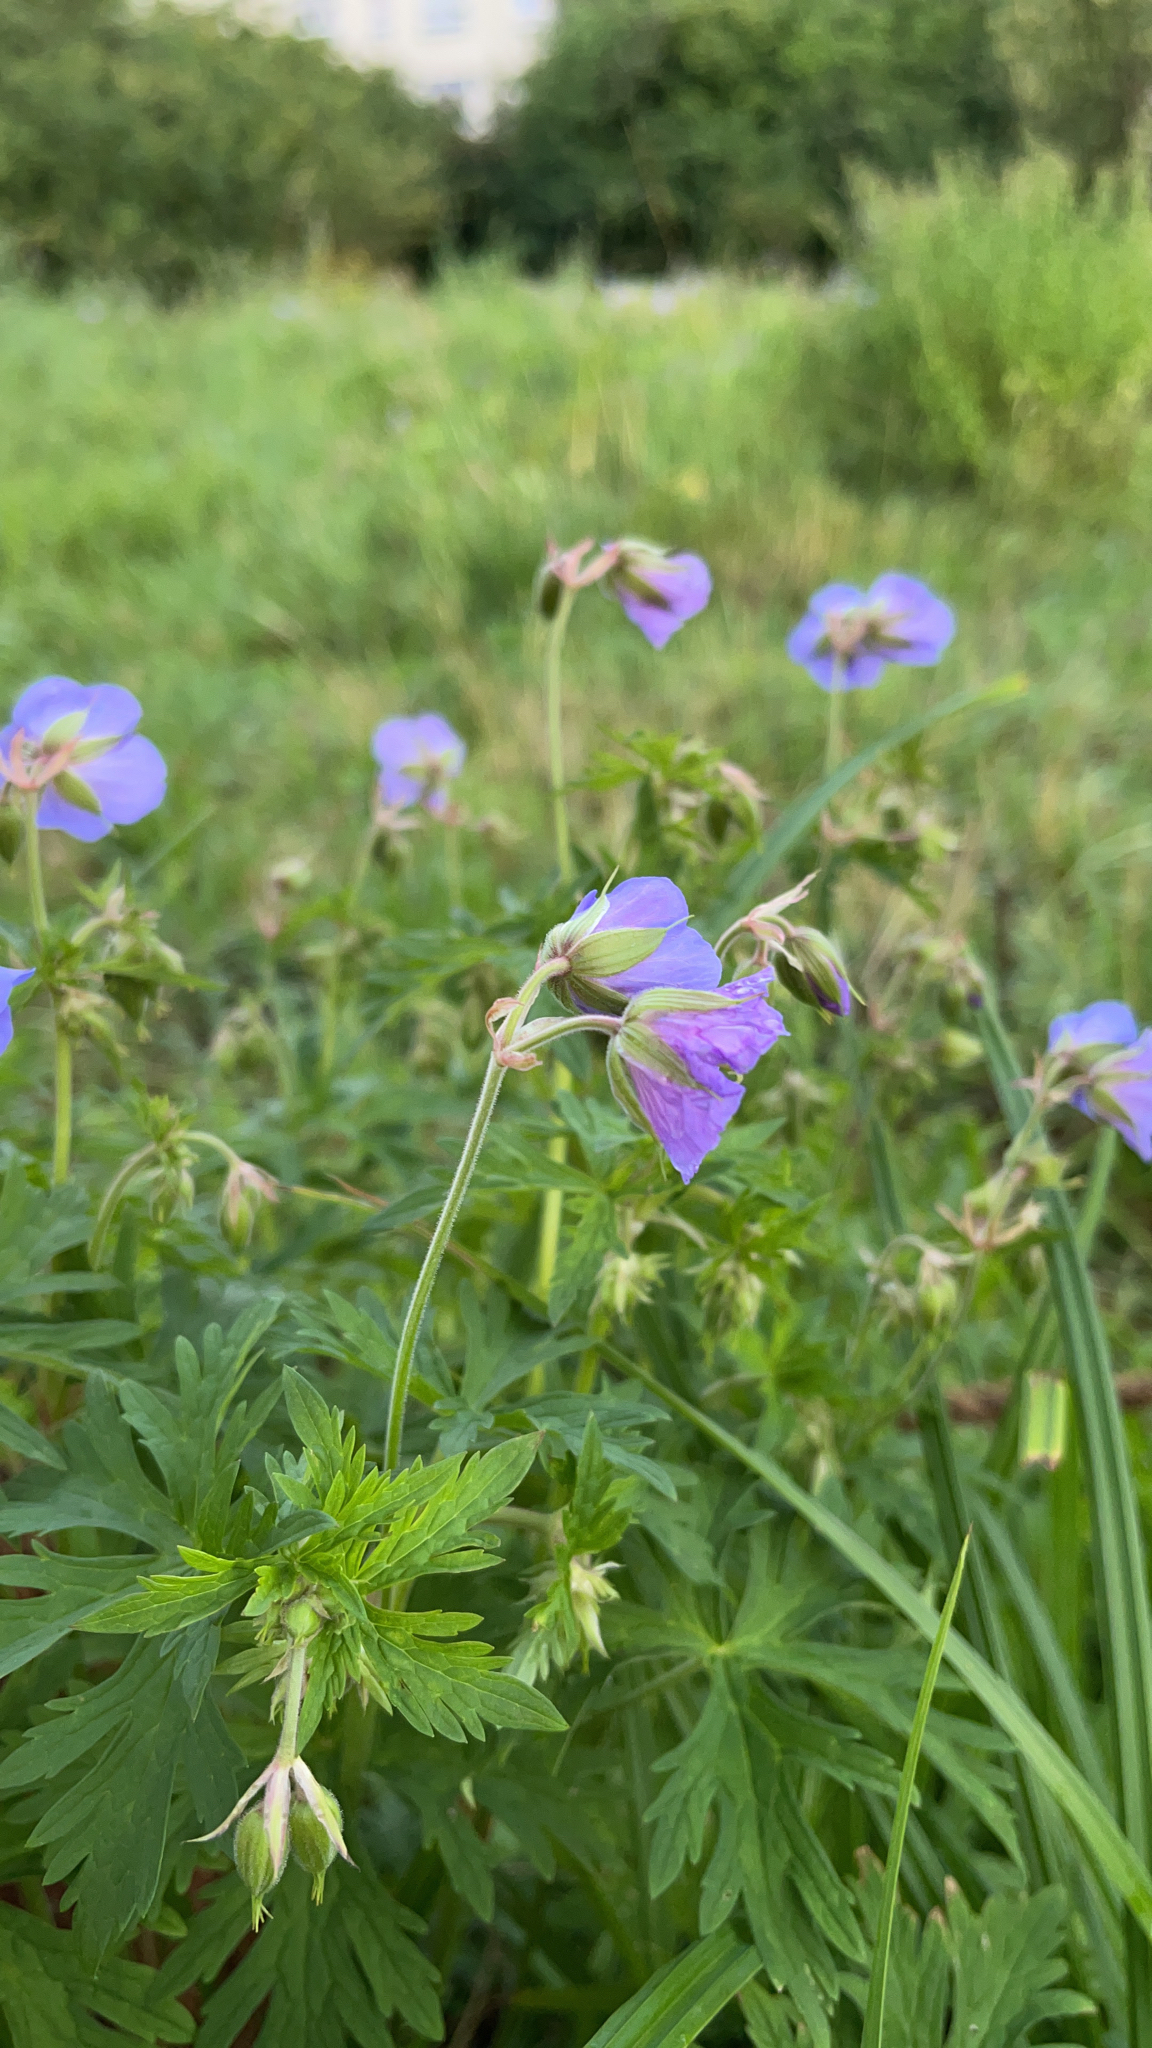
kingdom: Plantae
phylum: Tracheophyta
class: Magnoliopsida
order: Geraniales
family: Geraniaceae
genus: Geranium
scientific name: Geranium pratense
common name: Meadow crane's-bill
